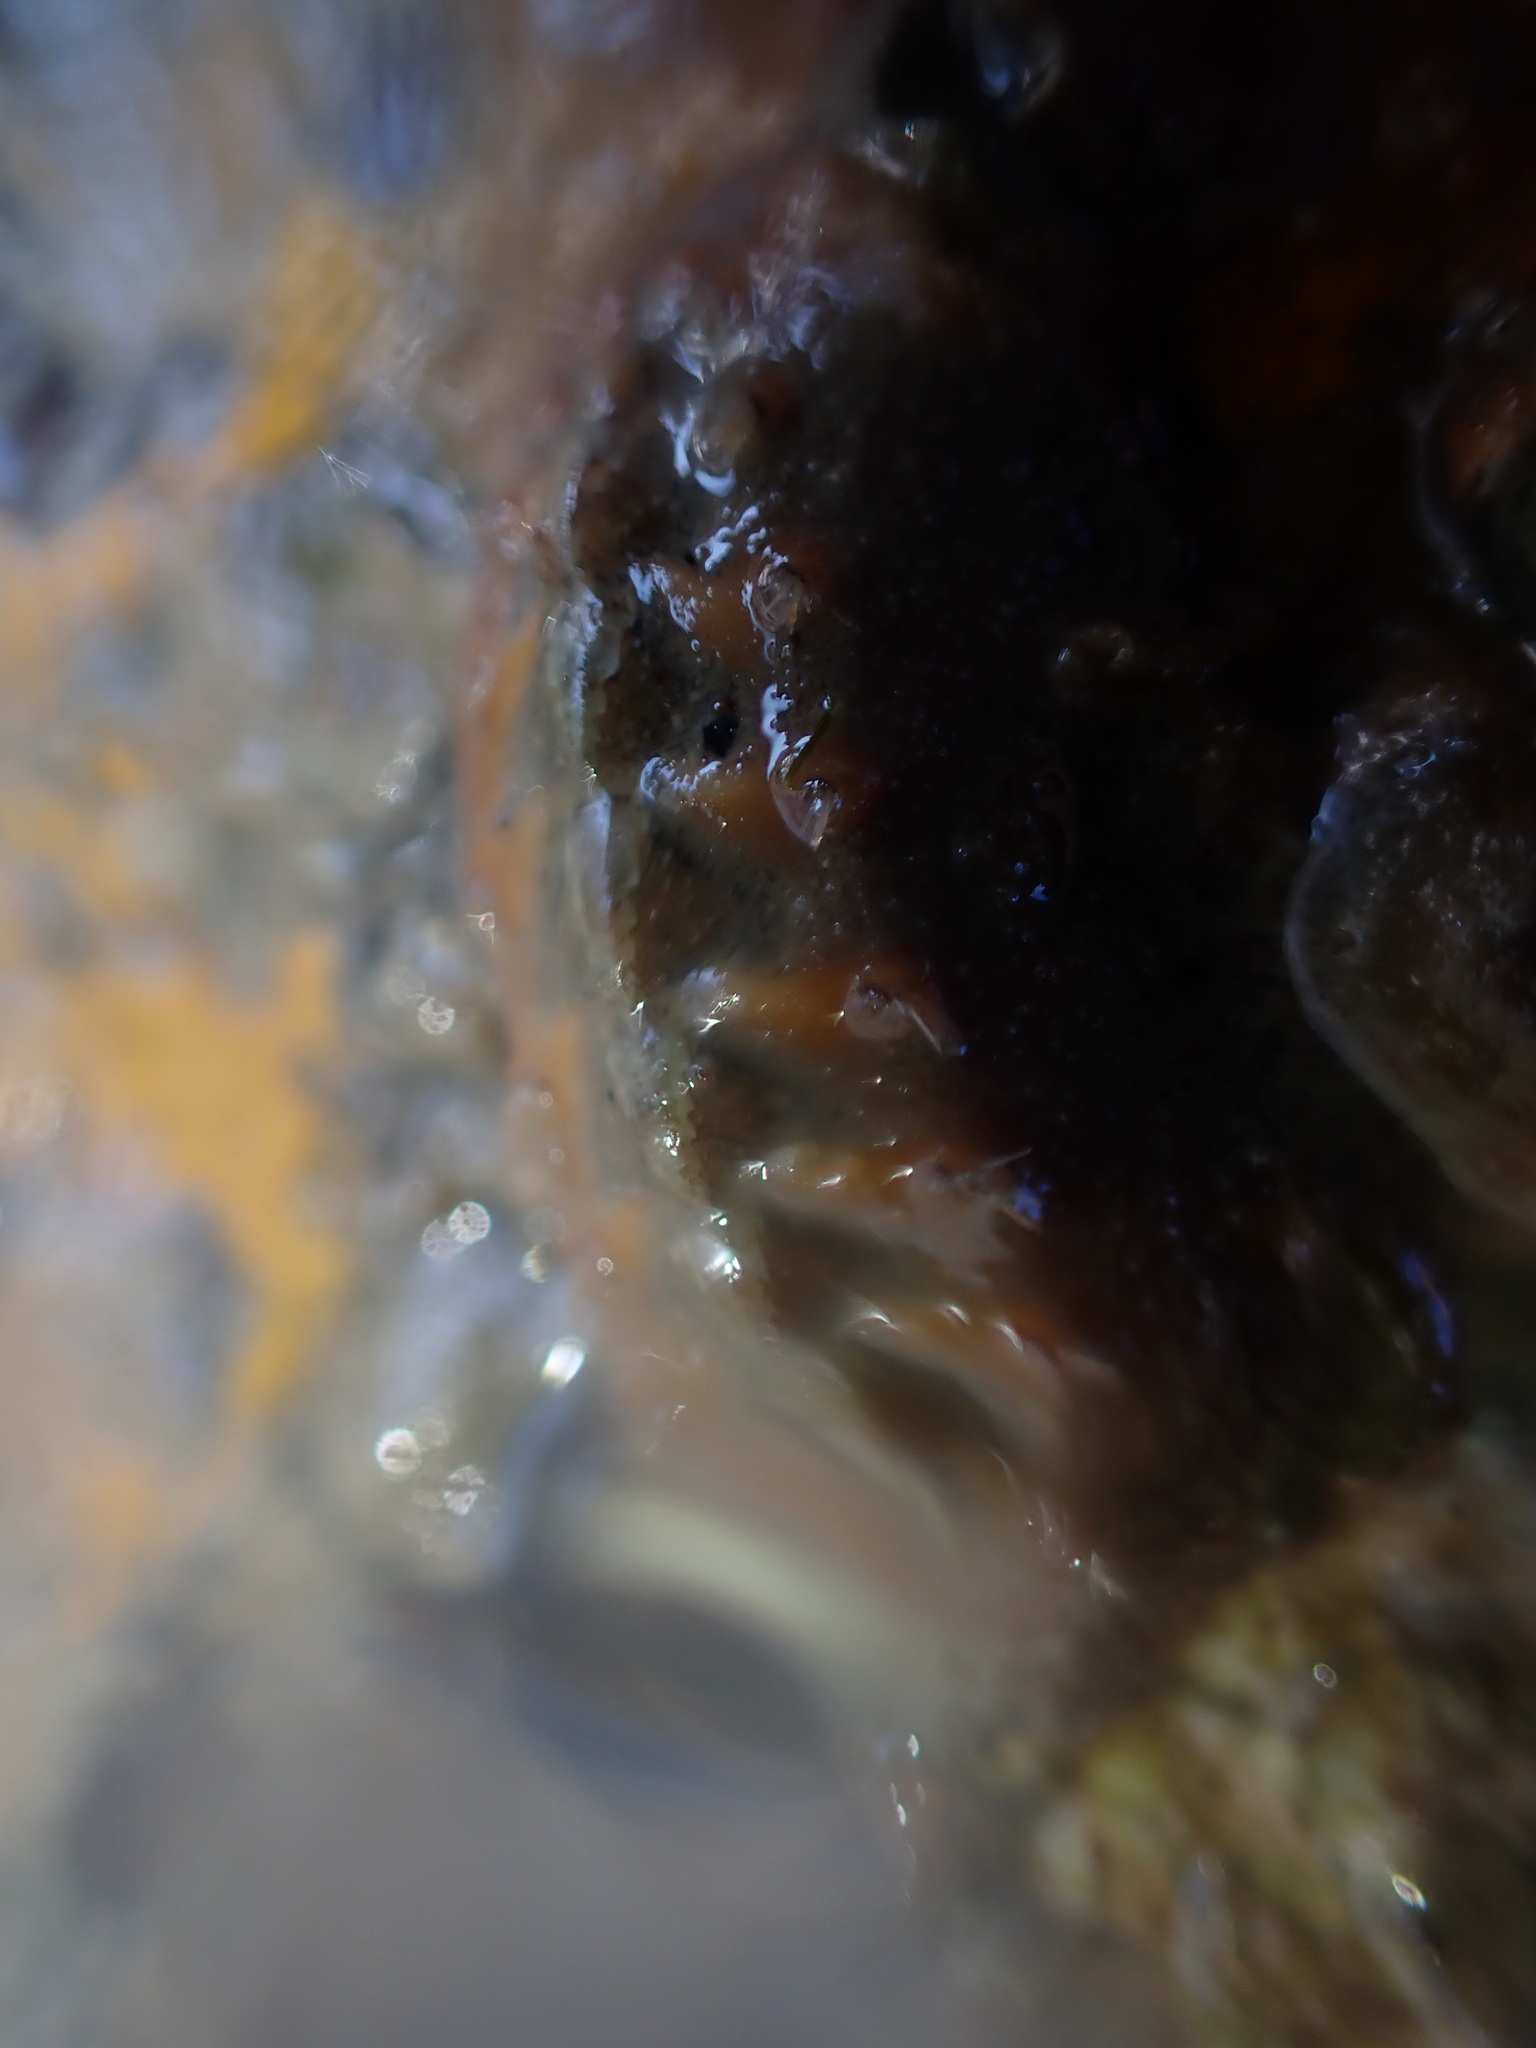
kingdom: Animalia
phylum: Mollusca
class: Polyplacophora
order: Chitonida
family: Acanthochitonidae
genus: Notoplax
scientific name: Notoplax mariae
